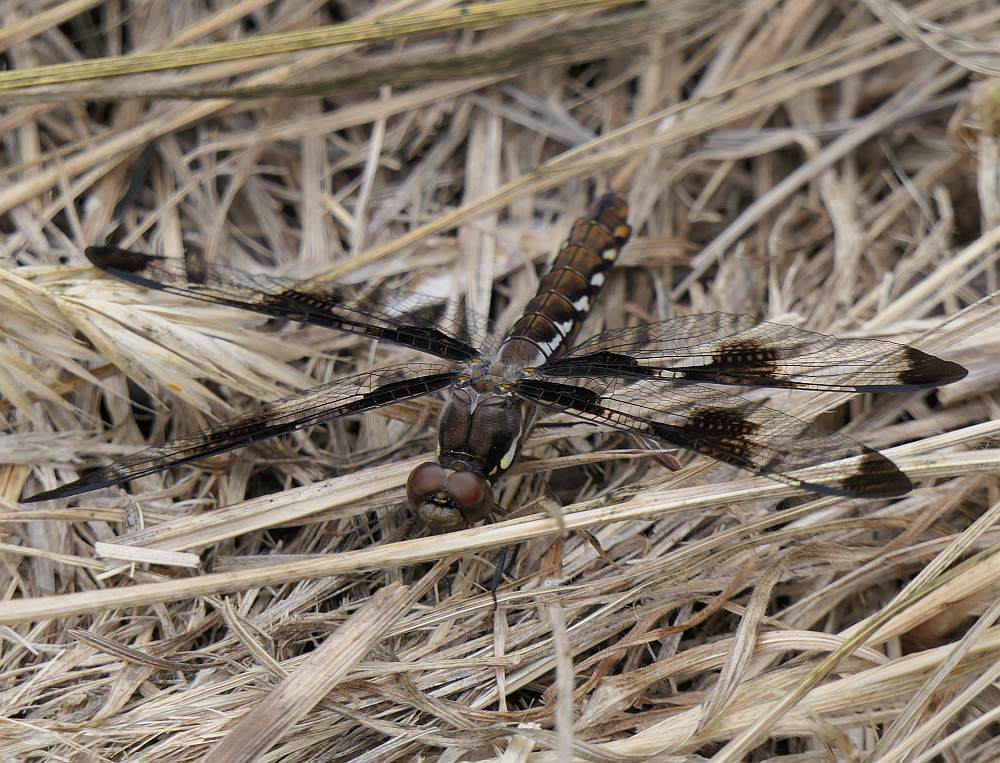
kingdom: Animalia
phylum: Arthropoda
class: Insecta
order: Odonata
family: Libellulidae
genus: Plathemis
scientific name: Plathemis lydia
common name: Common whitetail
